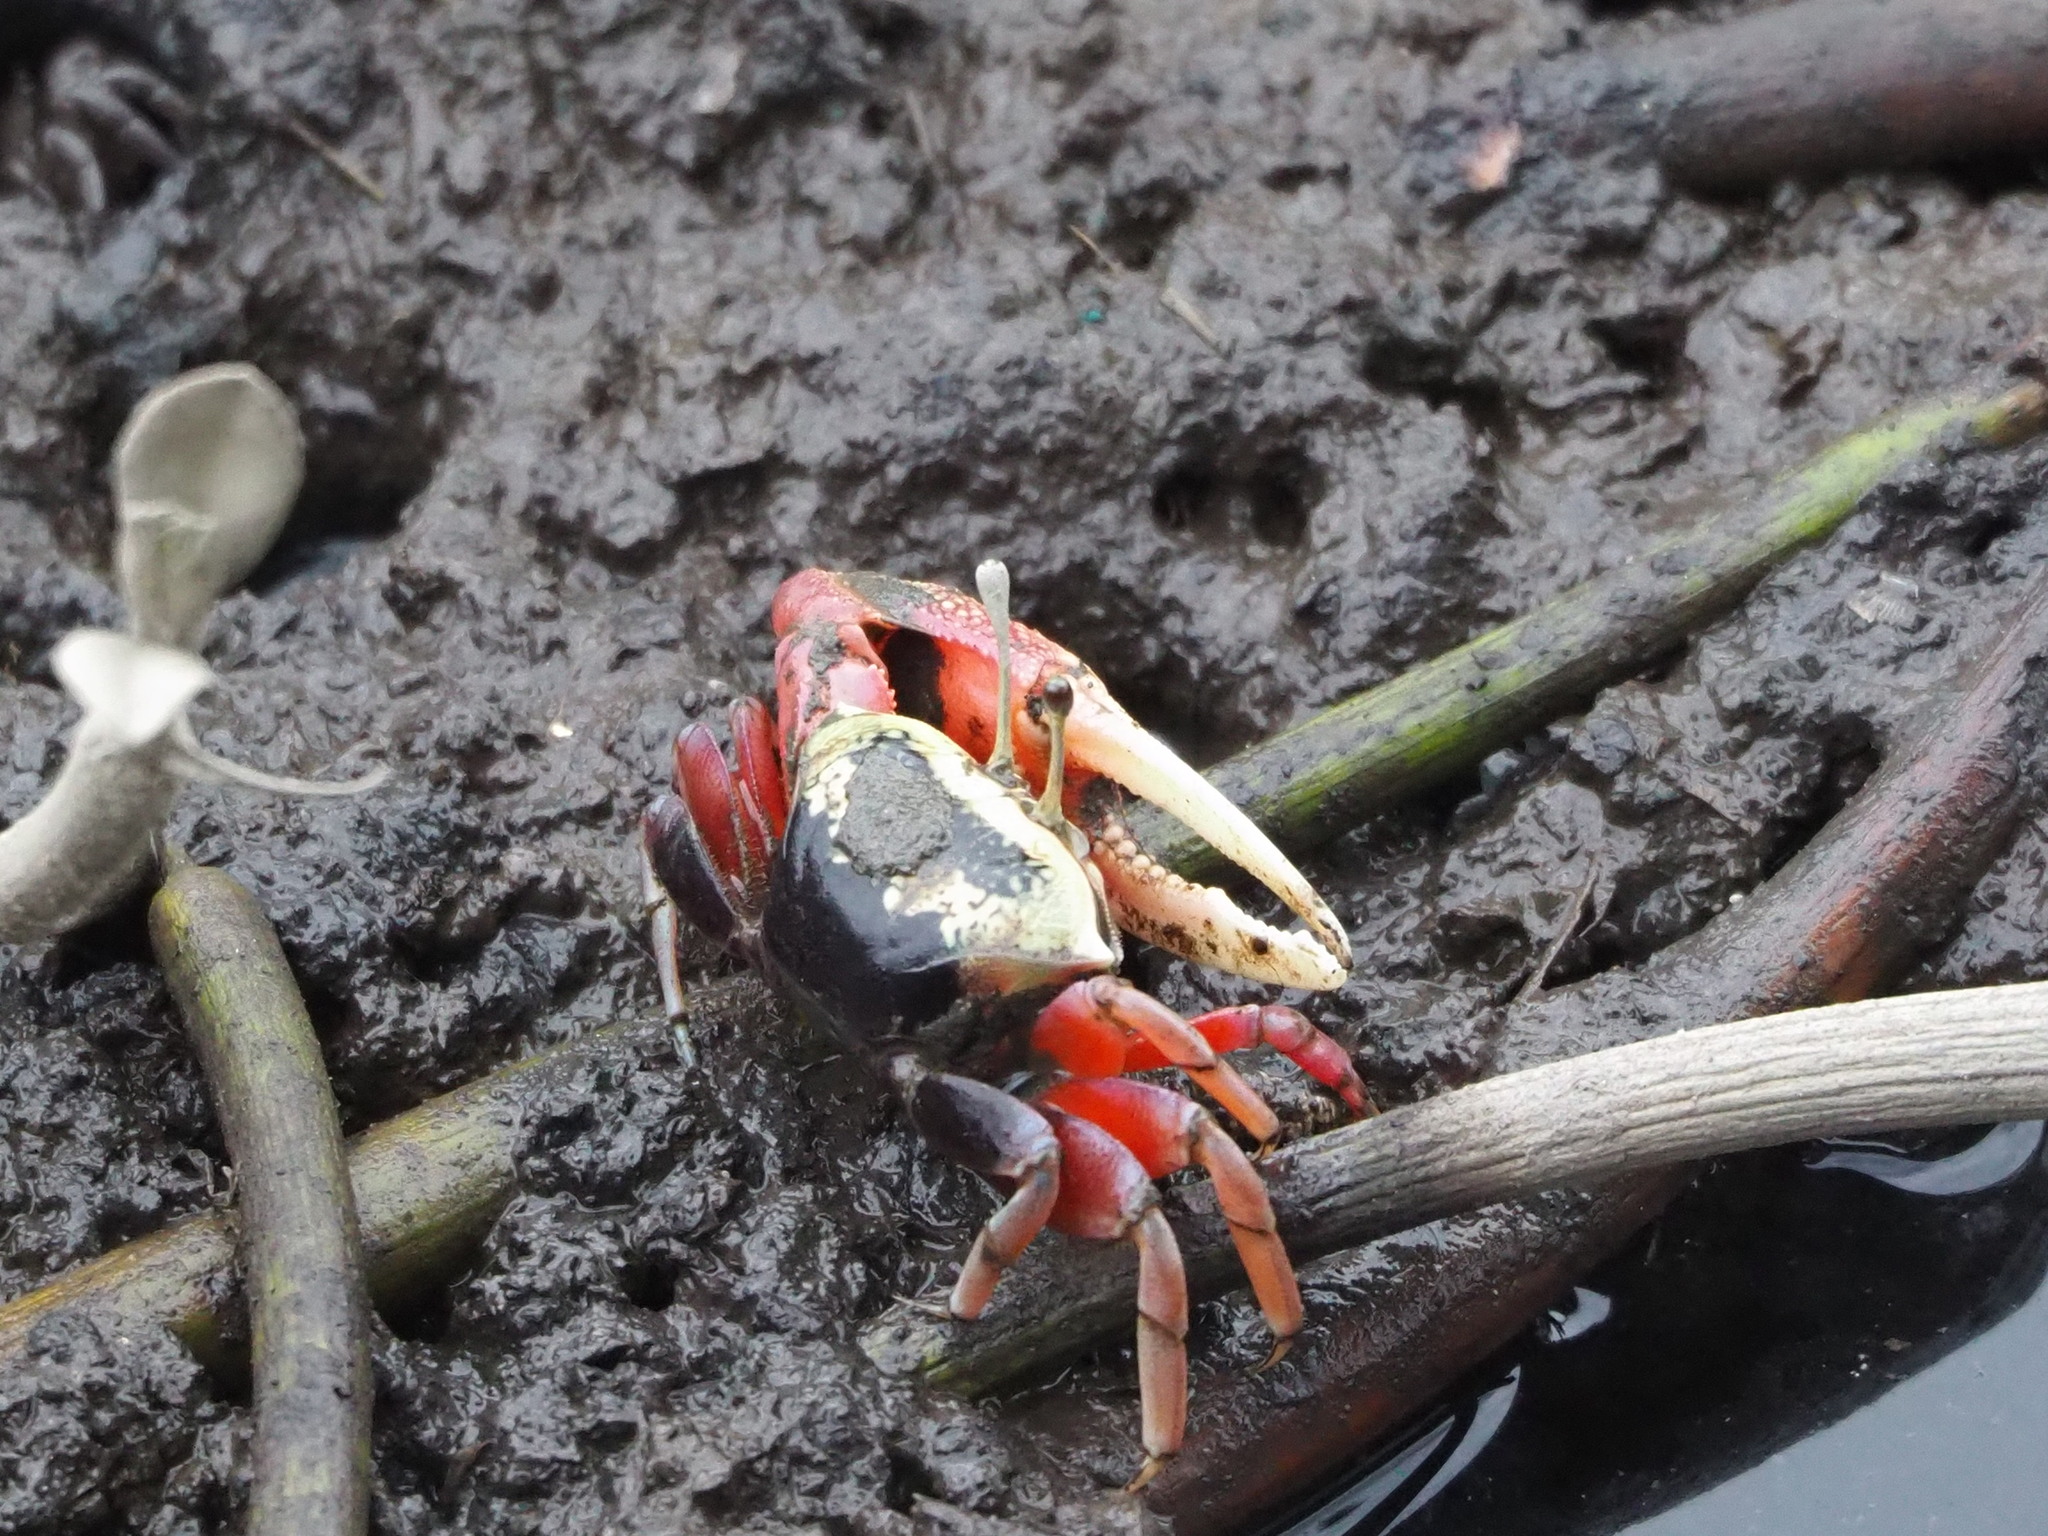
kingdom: Animalia
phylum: Arthropoda
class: Malacostraca
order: Decapoda
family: Ocypodidae
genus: Tubuca
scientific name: Tubuca arcuata
